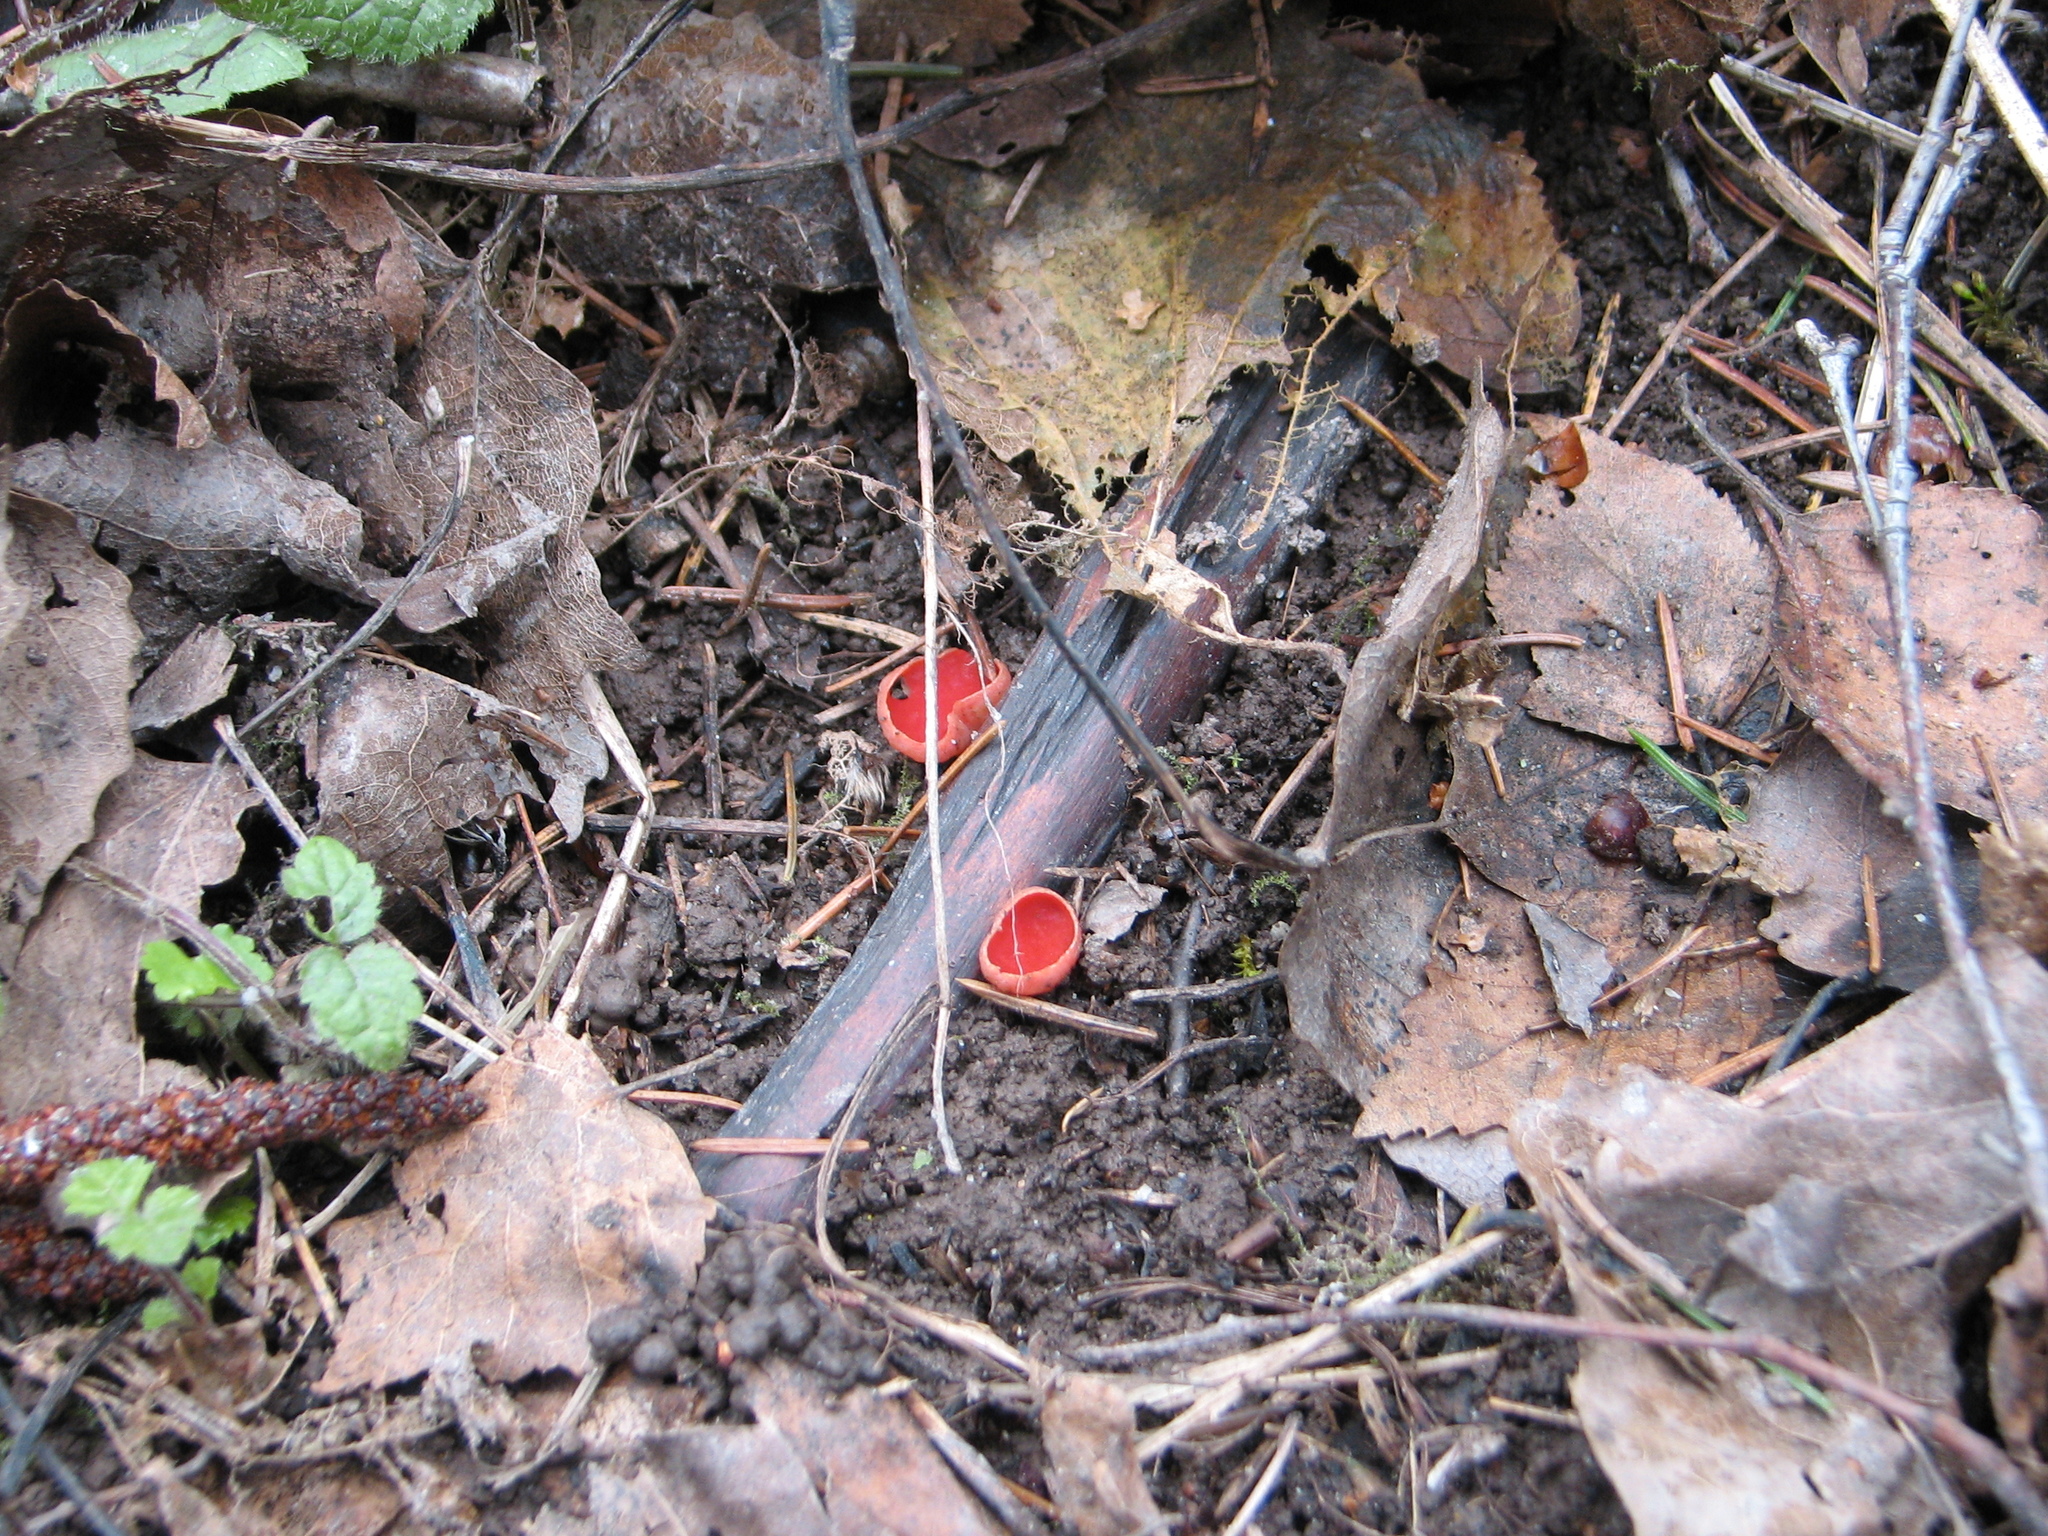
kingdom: Fungi
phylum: Ascomycota
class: Pezizomycetes
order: Pezizales
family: Sarcoscyphaceae
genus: Sarcoscypha
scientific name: Sarcoscypha austriaca
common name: Scarlet elfcup
